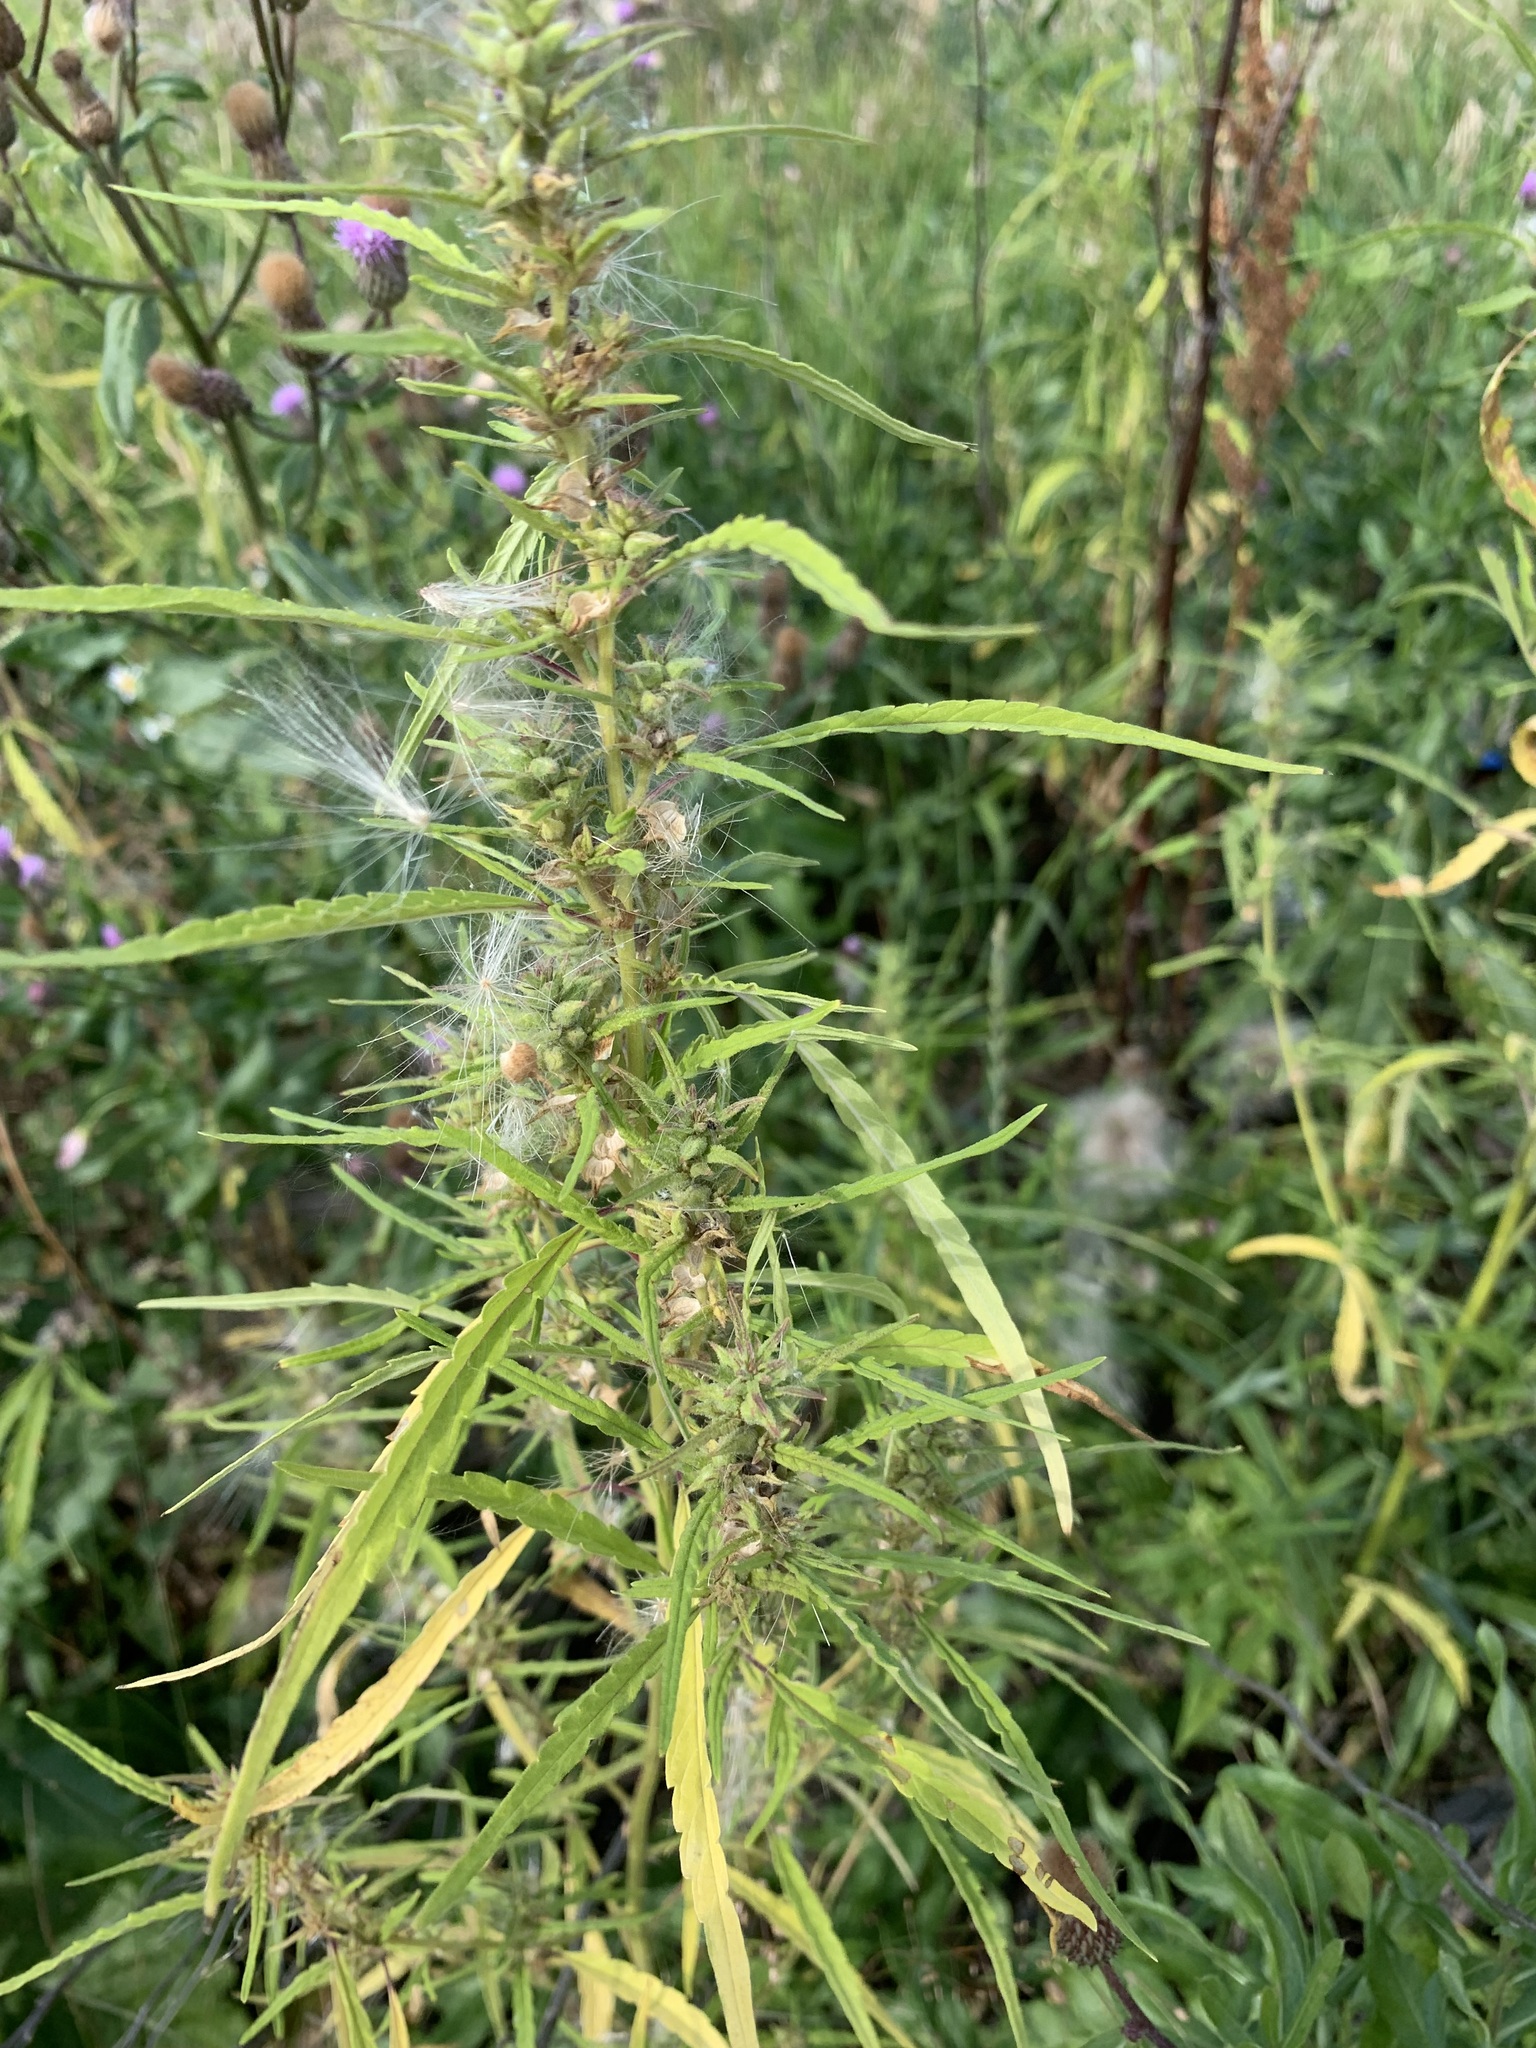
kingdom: Plantae
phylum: Tracheophyta
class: Magnoliopsida
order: Rosales
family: Cannabaceae
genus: Cannabis
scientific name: Cannabis sativa
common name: Hemp
